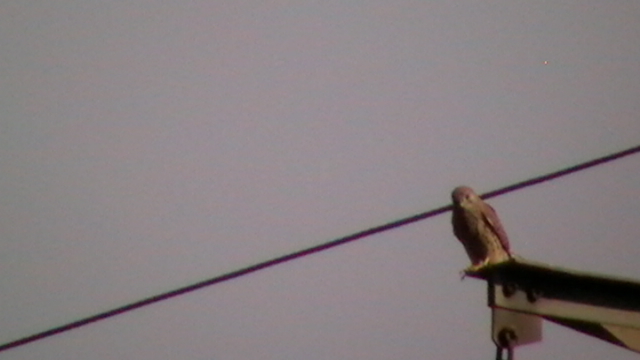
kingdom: Animalia
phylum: Chordata
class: Aves
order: Falconiformes
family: Falconidae
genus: Falco
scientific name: Falco tinnunculus
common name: Common kestrel
